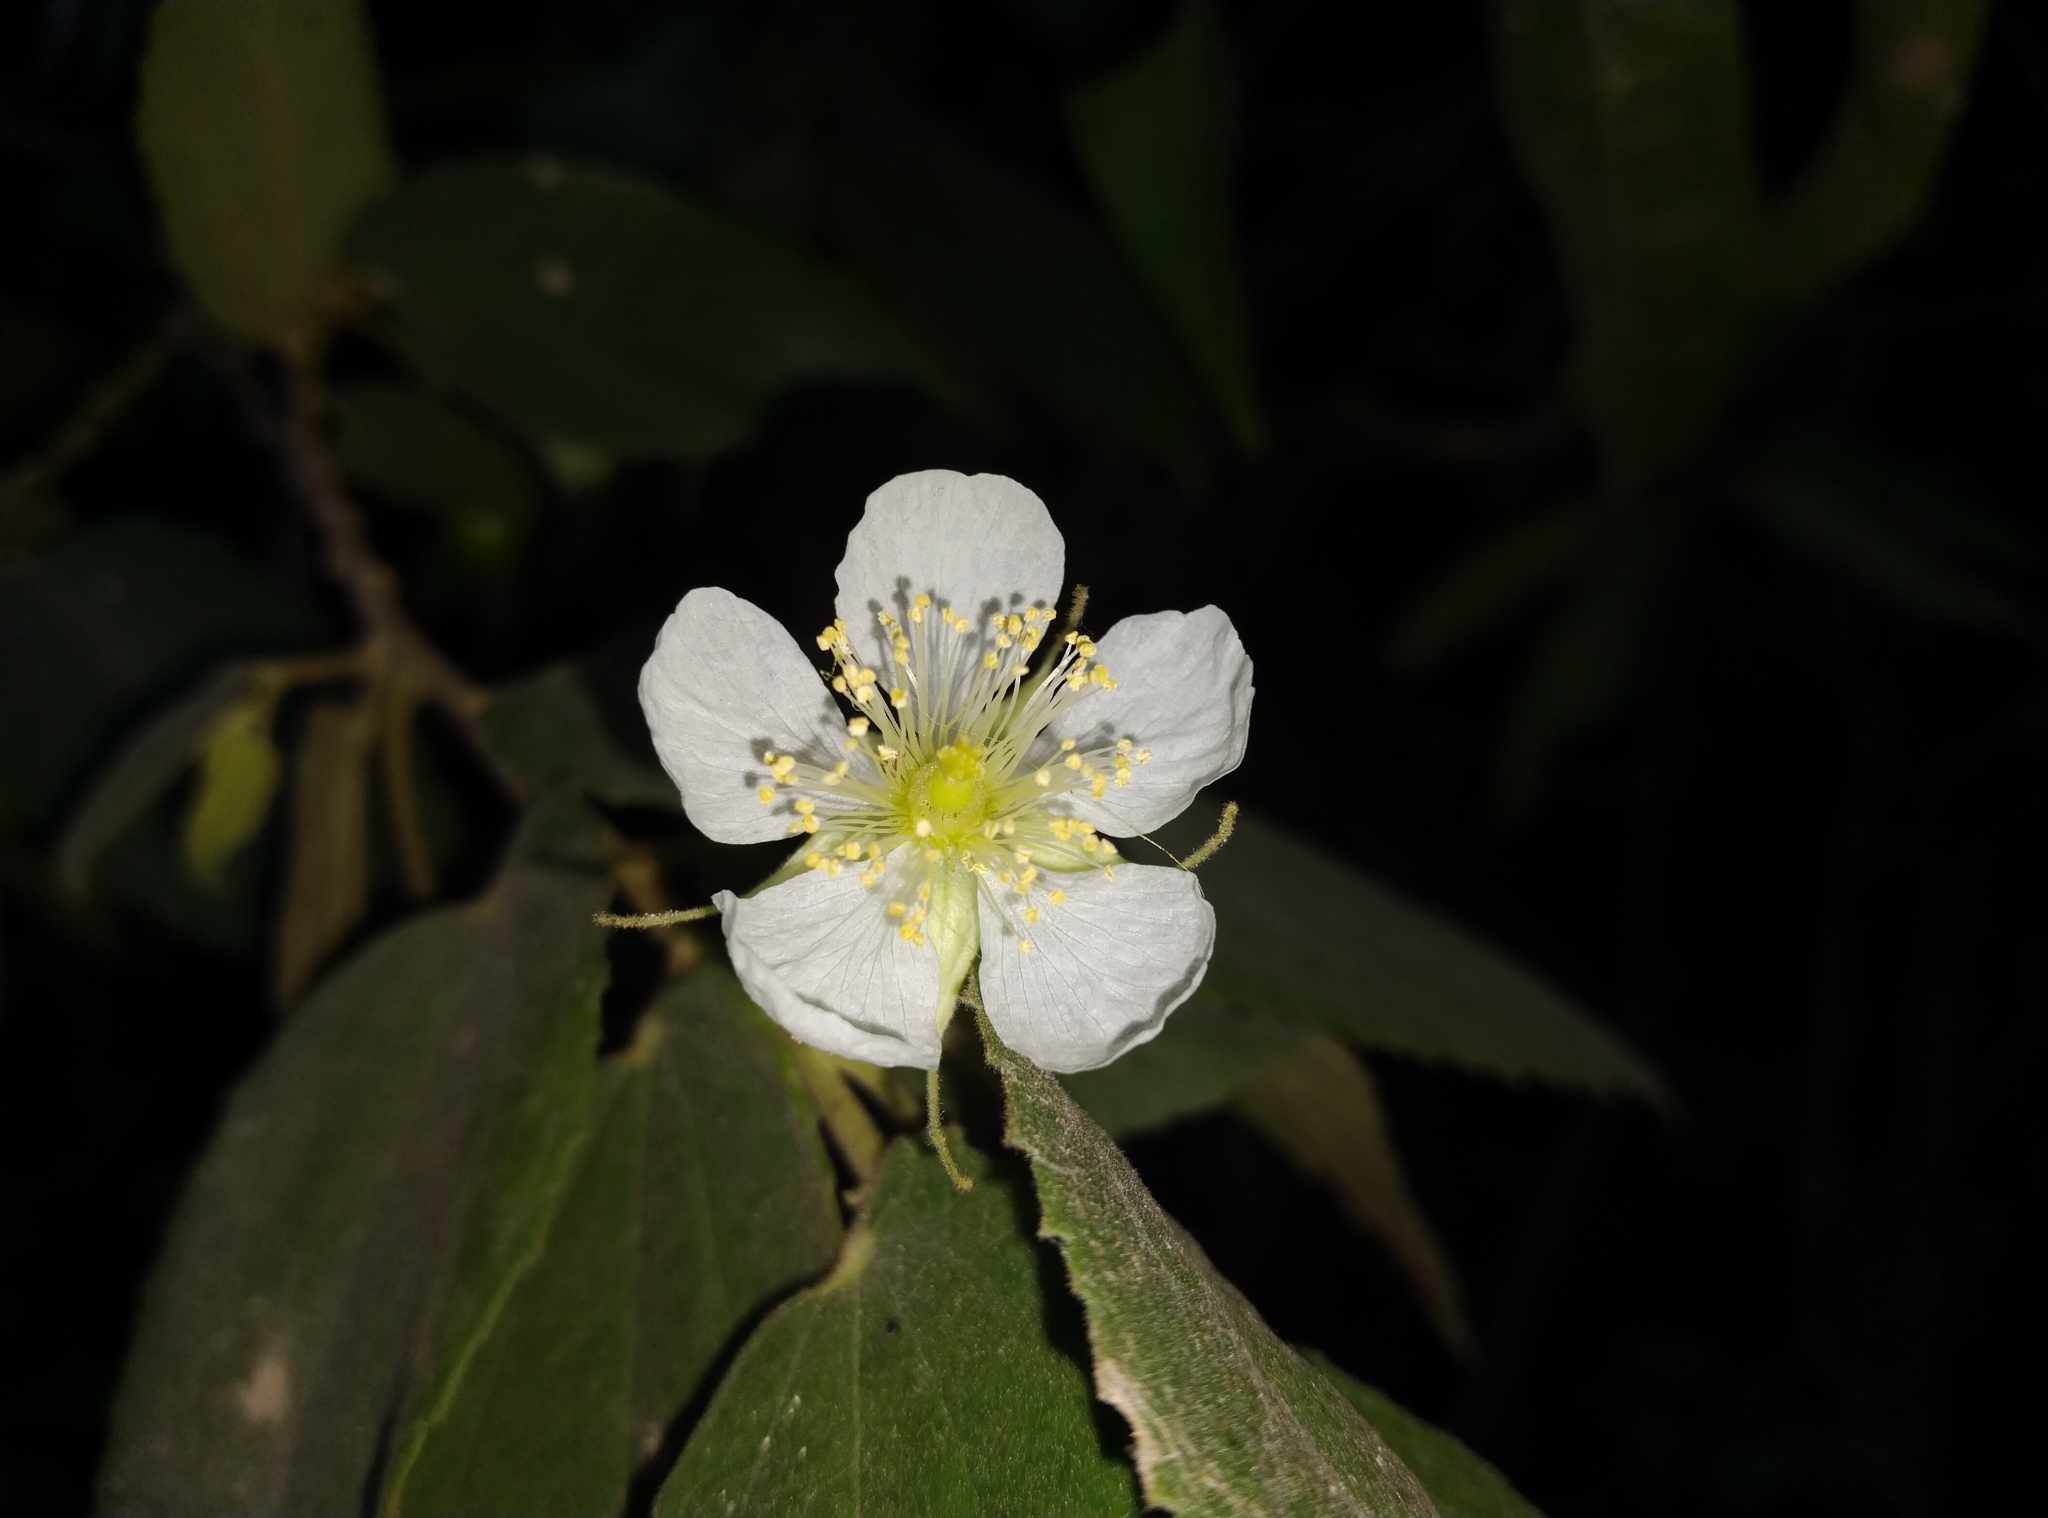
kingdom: Plantae
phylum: Tracheophyta
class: Magnoliopsida
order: Malvales
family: Muntingiaceae
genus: Muntingia
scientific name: Muntingia calabura
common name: Strawberrytree
